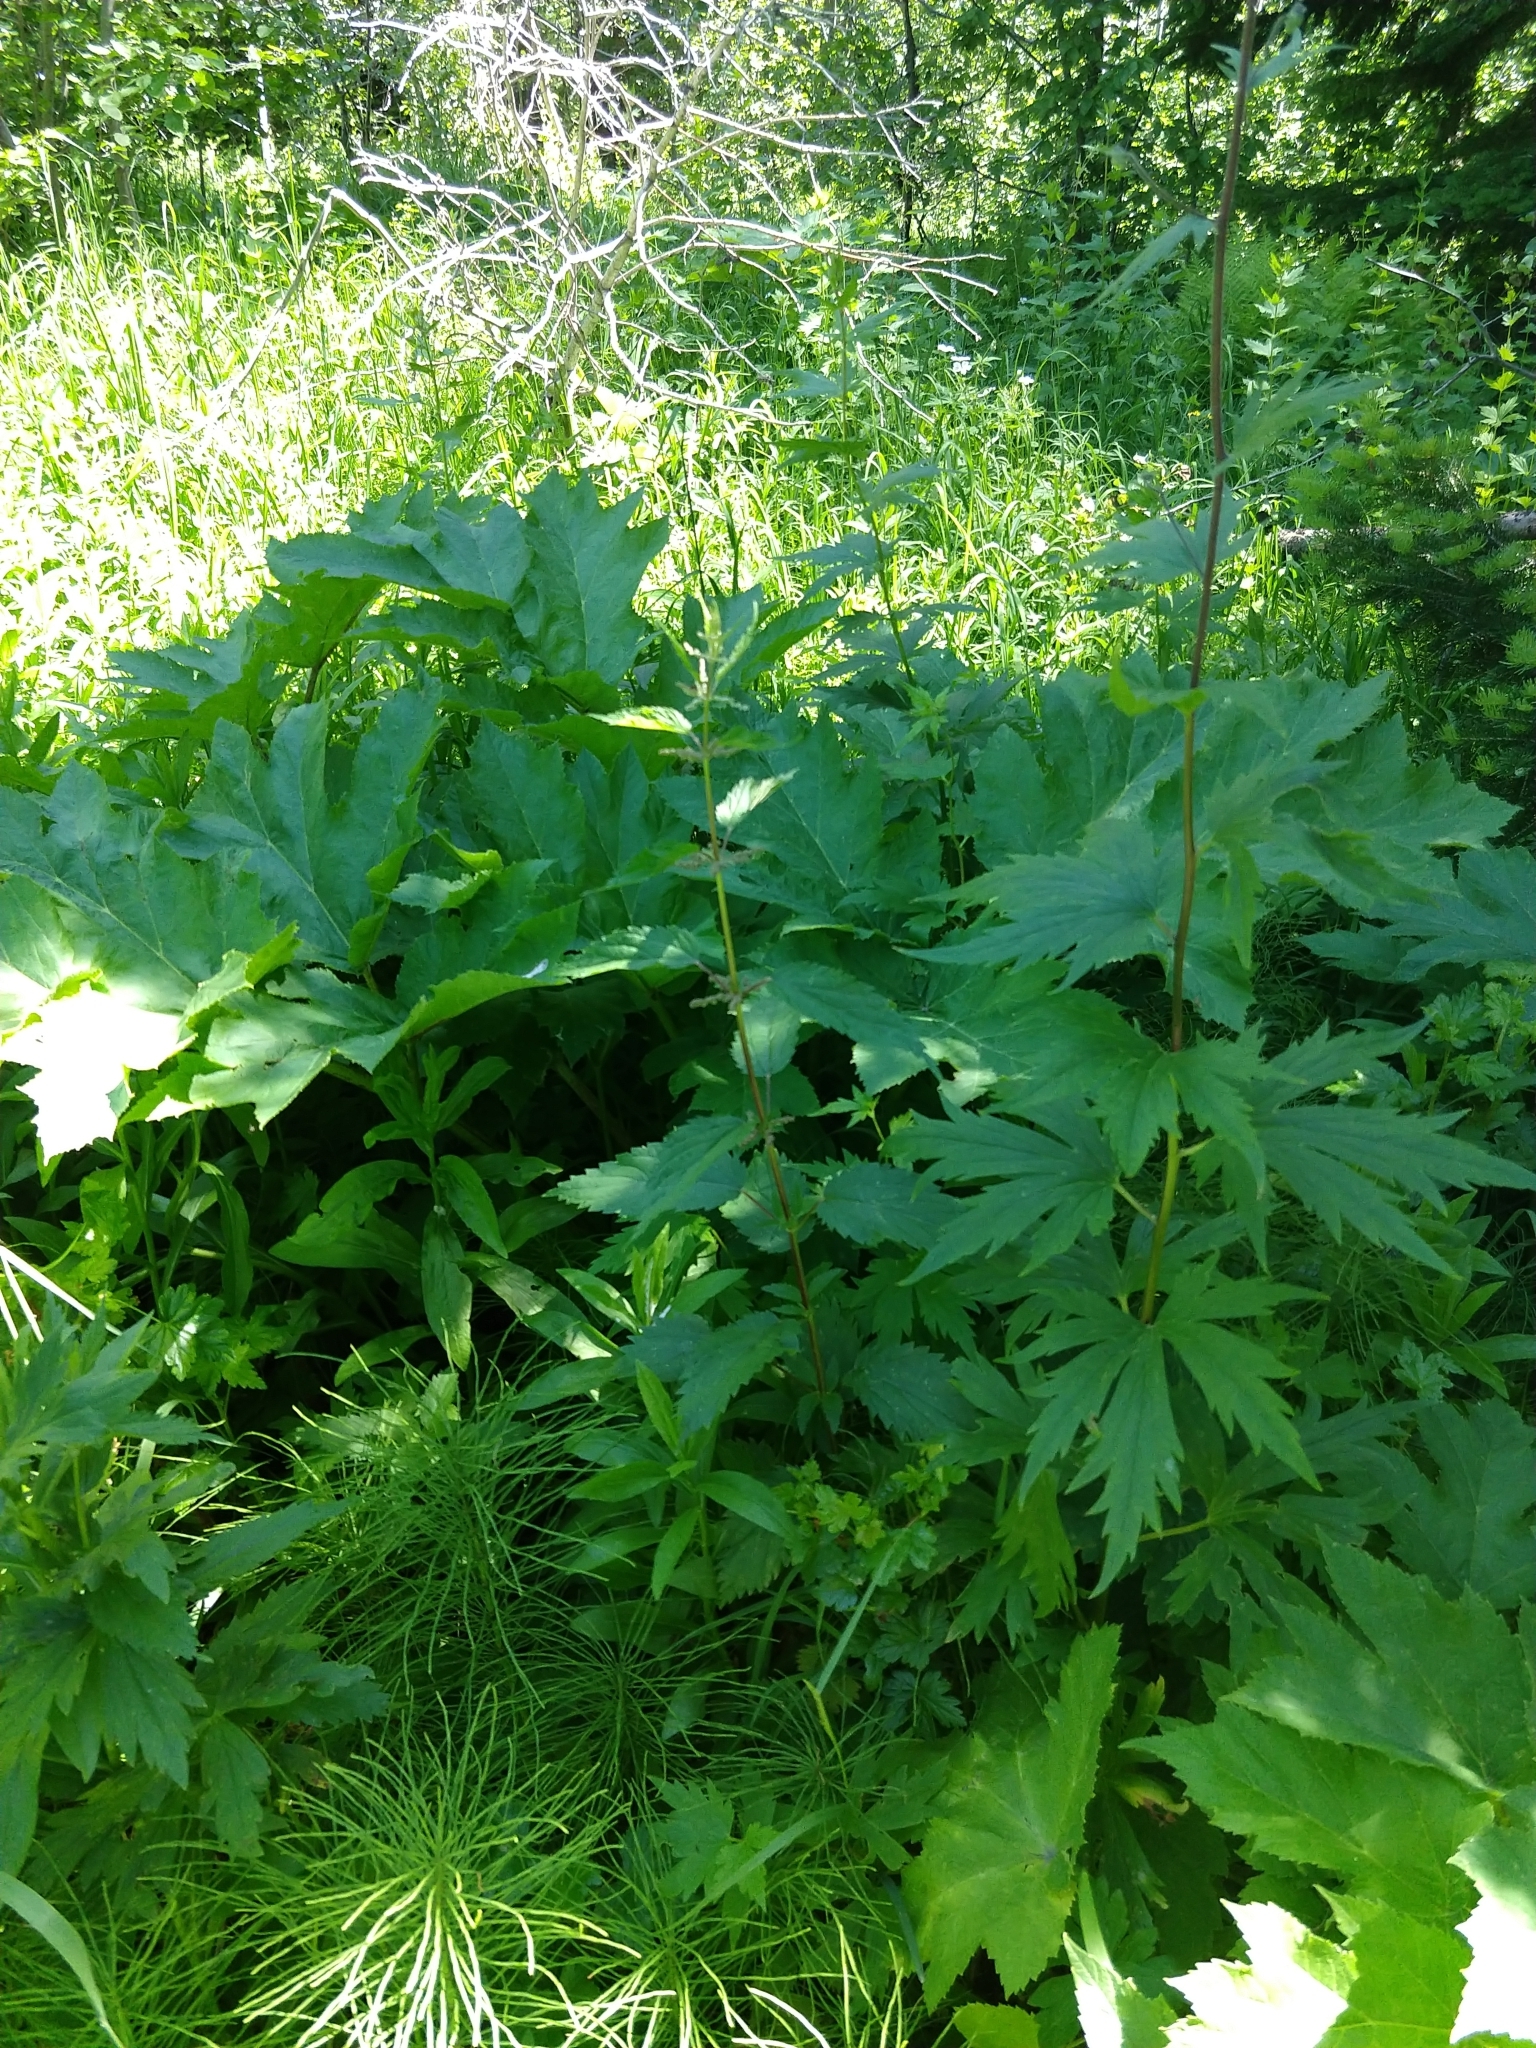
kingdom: Plantae
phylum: Tracheophyta
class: Magnoliopsida
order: Rosales
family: Urticaceae
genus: Urtica
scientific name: Urtica dioica
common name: Common nettle
